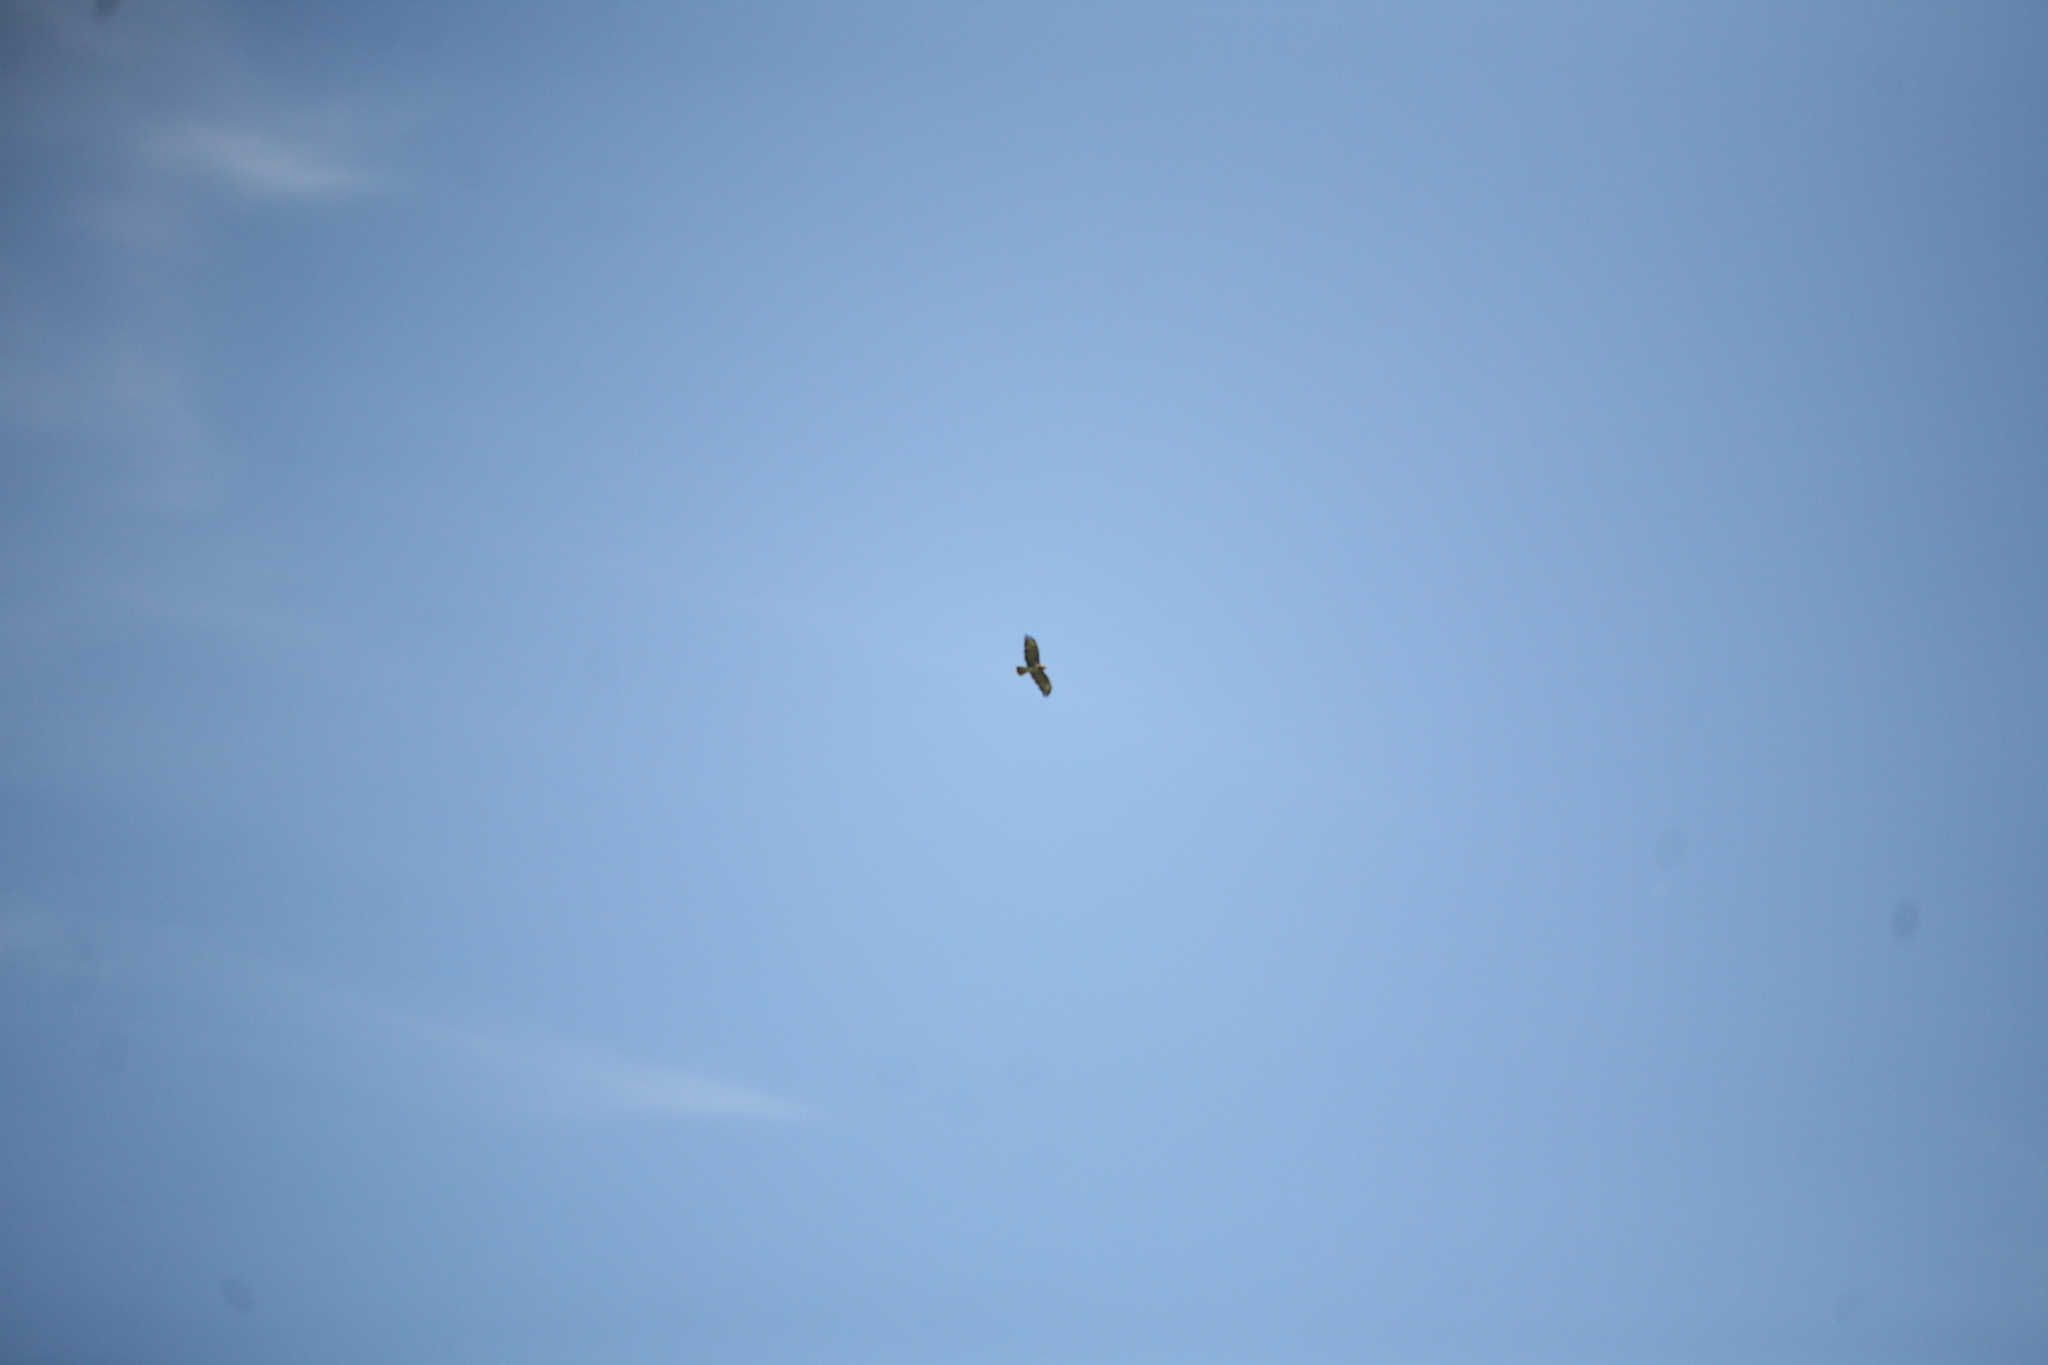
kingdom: Animalia
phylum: Chordata
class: Aves
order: Accipitriformes
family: Accipitridae
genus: Buteo
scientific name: Buteo buteo
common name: Common buzzard
